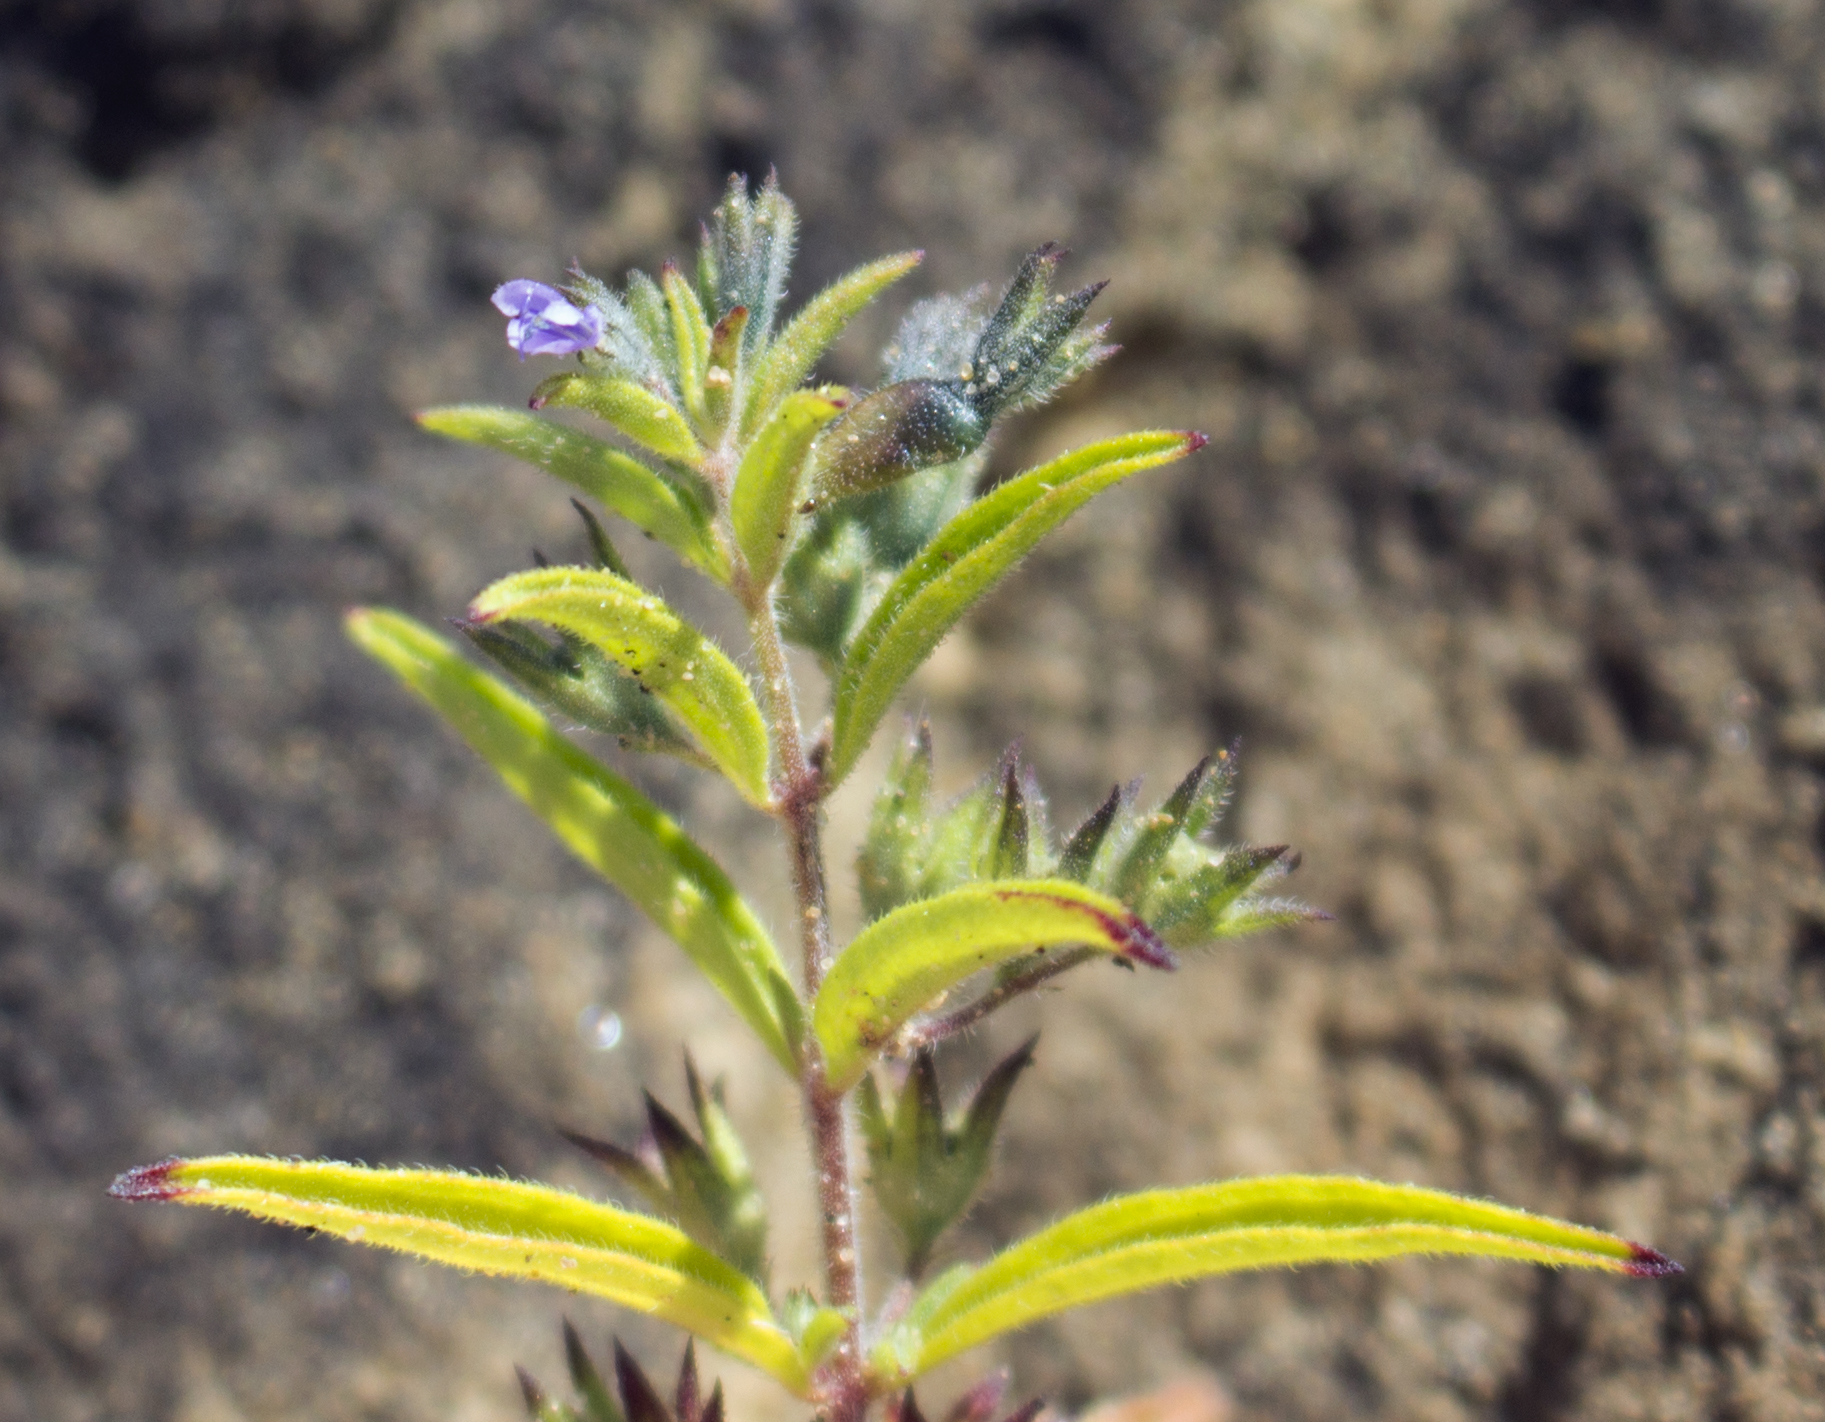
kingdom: Plantae
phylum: Tracheophyta
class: Magnoliopsida
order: Lamiales
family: Lamiaceae
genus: Trichostema
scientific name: Trichostema brachiatum
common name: False pennyroyal
